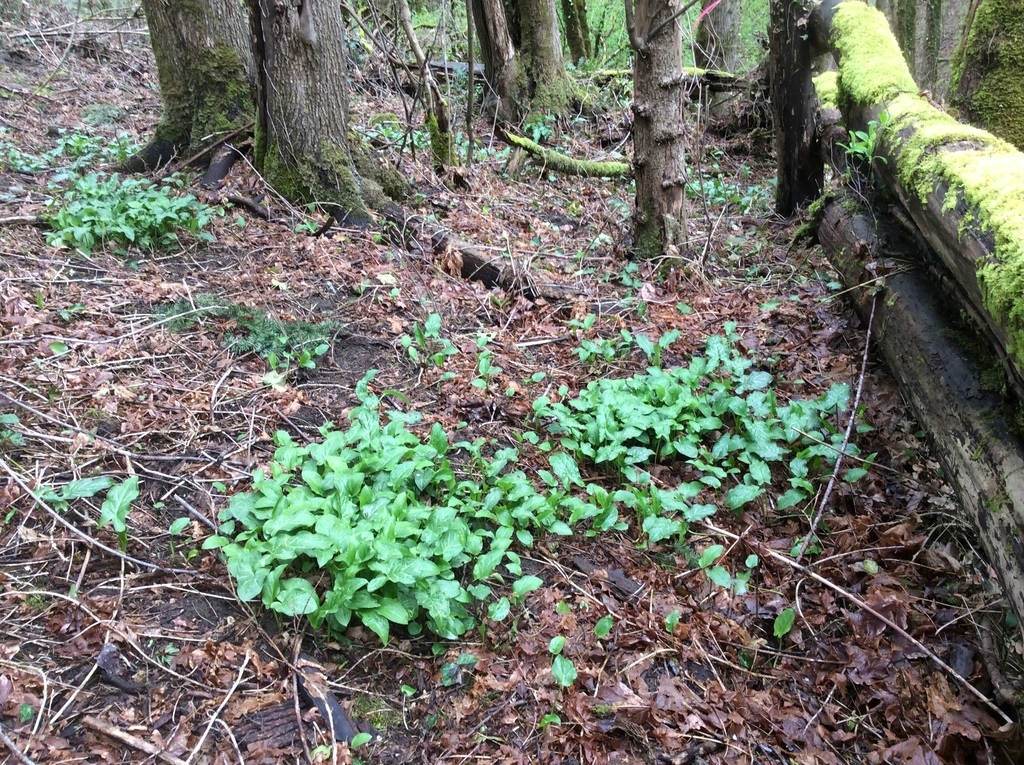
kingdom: Plantae
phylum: Tracheophyta
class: Liliopsida
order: Alismatales
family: Araceae
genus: Arum
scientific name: Arum italicum
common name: Italian lords-and-ladies
